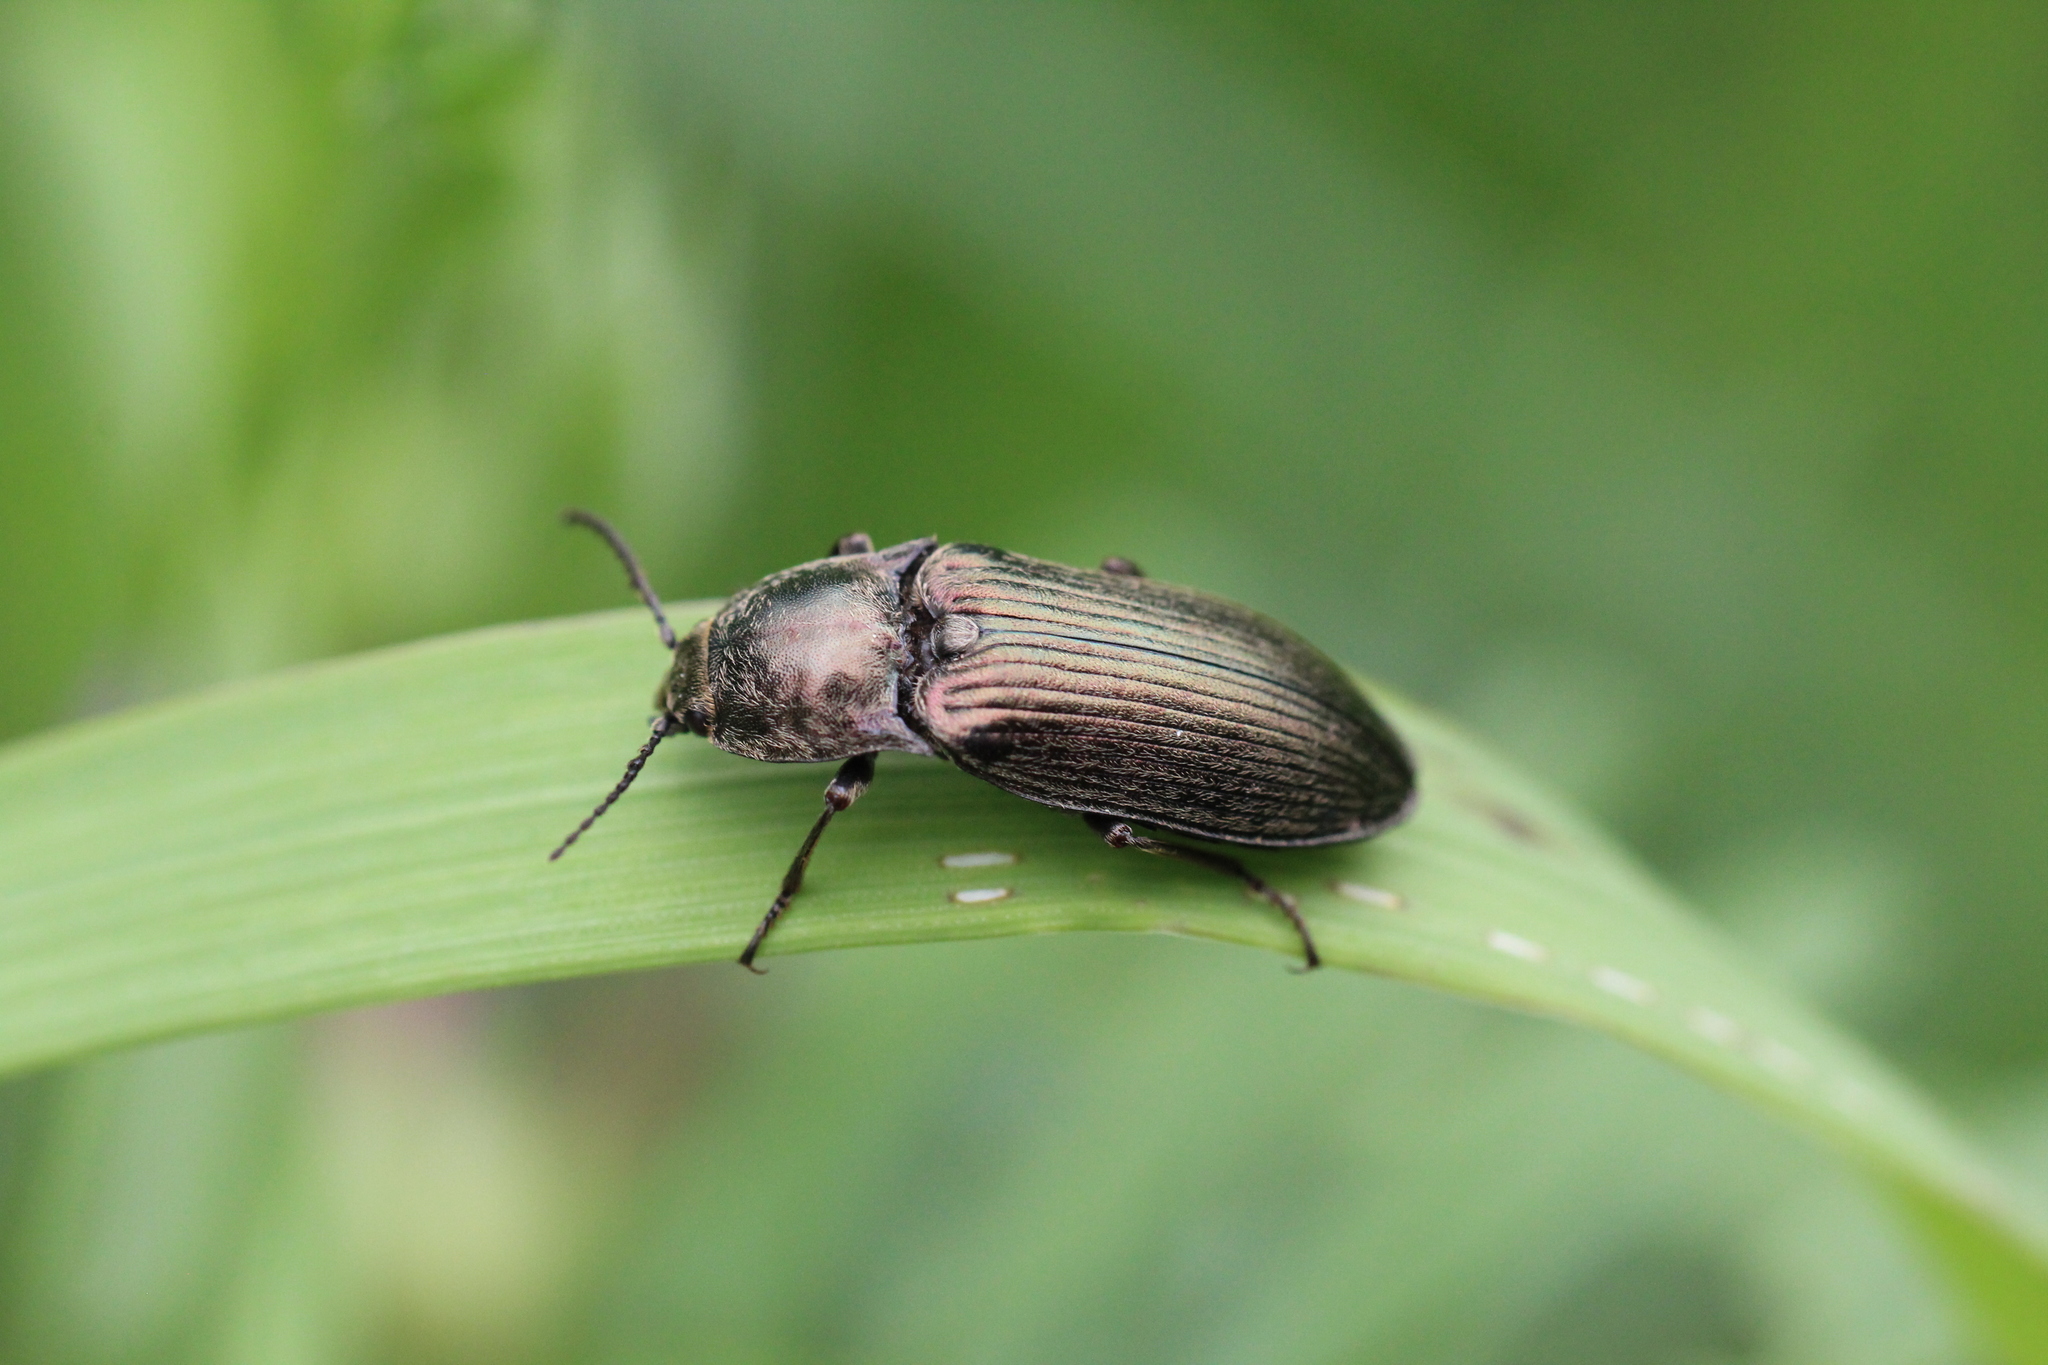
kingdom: Animalia
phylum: Arthropoda
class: Insecta
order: Coleoptera
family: Elateridae
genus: Selatosomus
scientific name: Selatosomus latus
